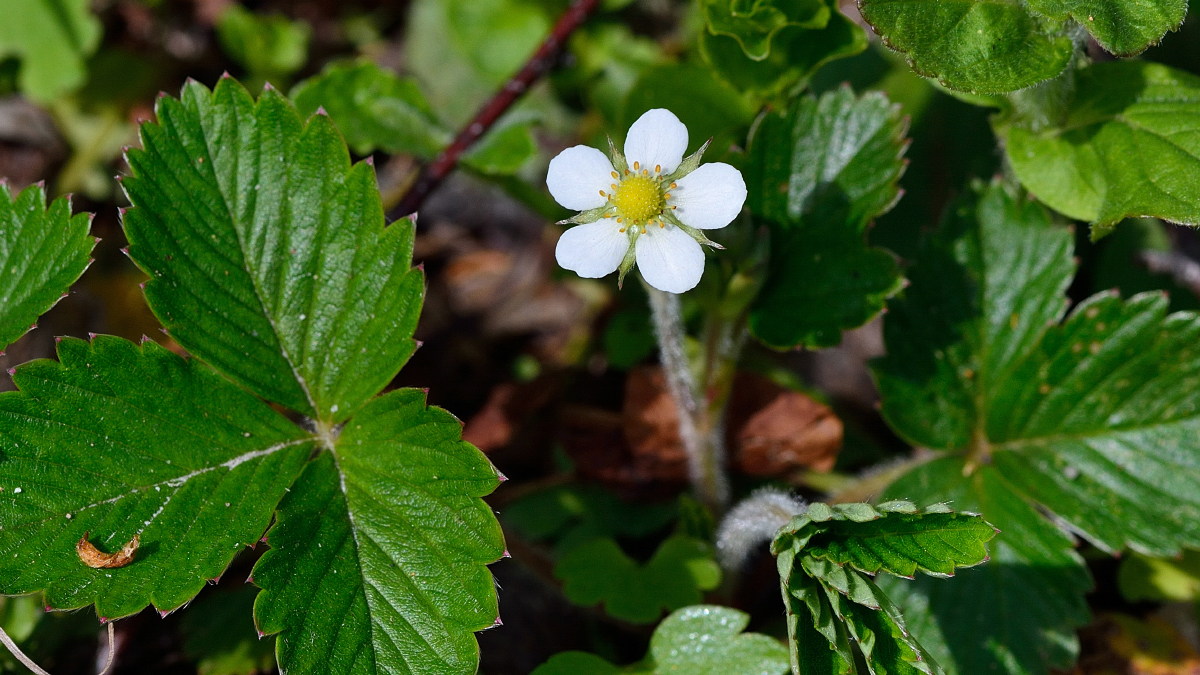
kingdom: Plantae
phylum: Tracheophyta
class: Magnoliopsida
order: Rosales
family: Rosaceae
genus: Fragaria
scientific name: Fragaria vesca
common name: Wild strawberry
